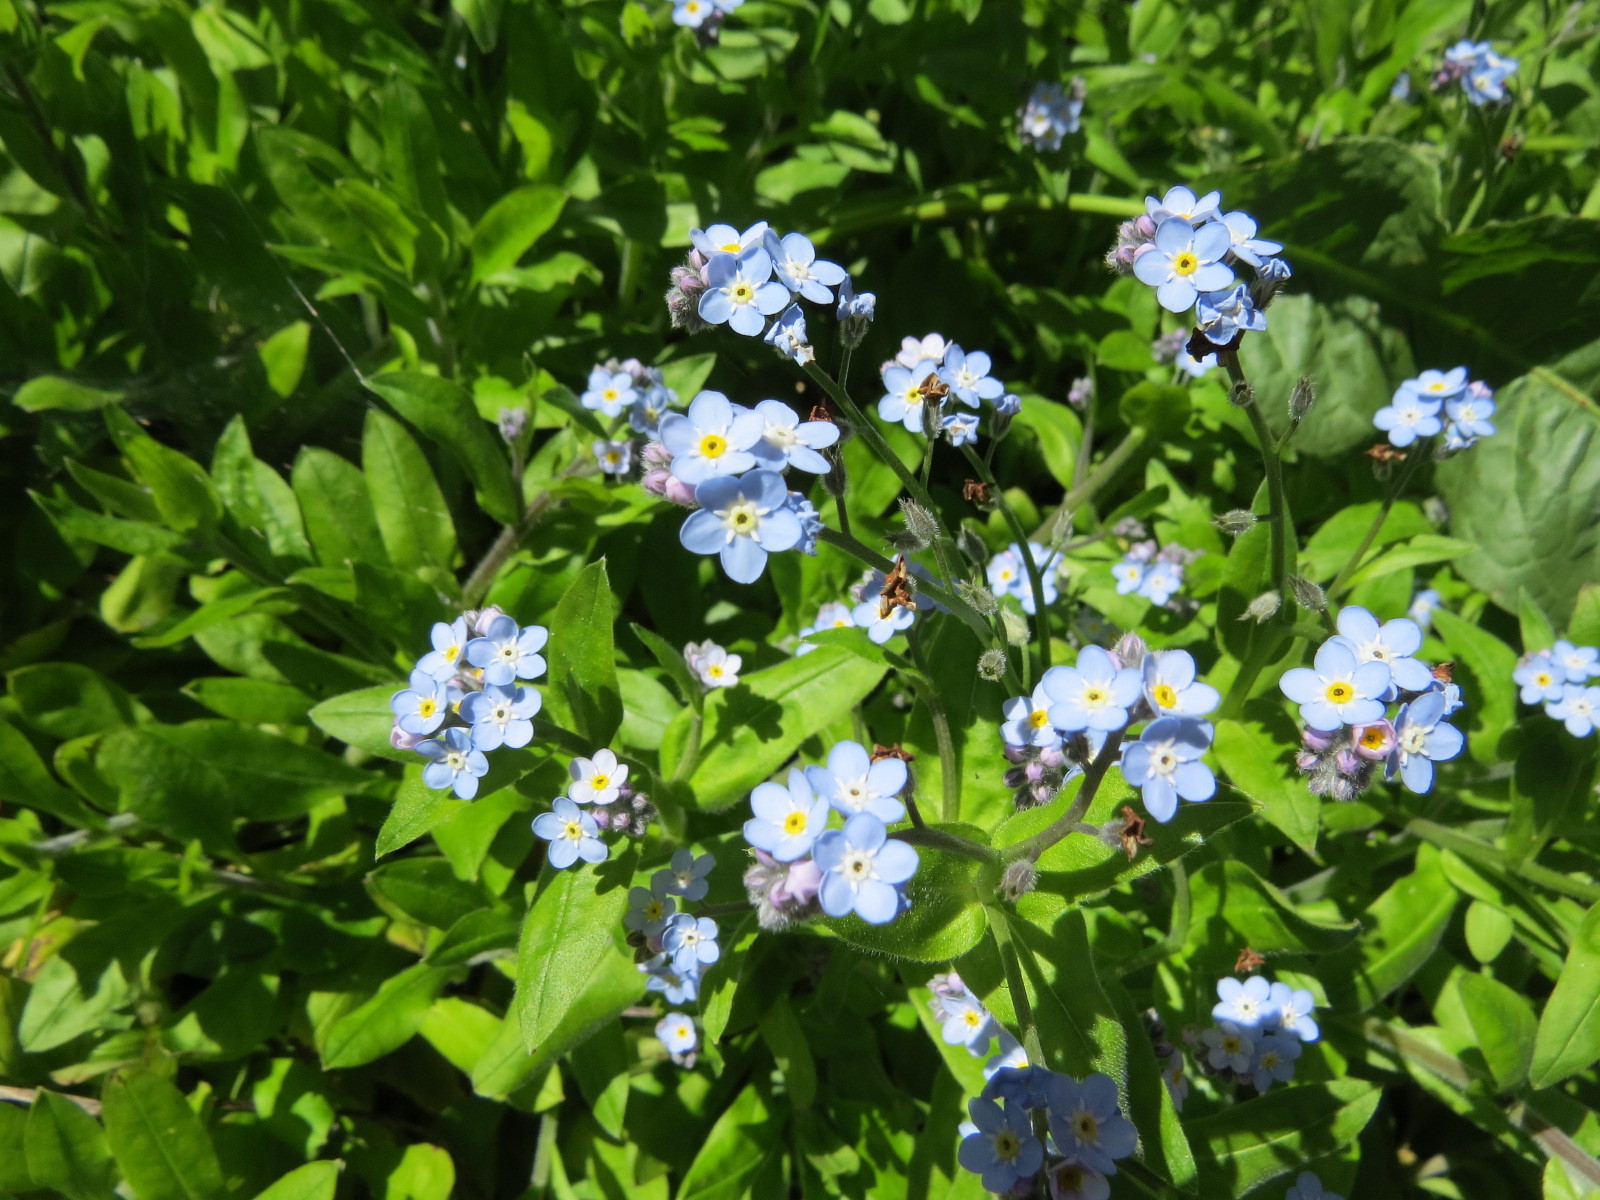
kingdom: Plantae
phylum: Tracheophyta
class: Magnoliopsida
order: Boraginales
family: Boraginaceae
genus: Myosotis
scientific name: Myosotis latifolia
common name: Broadleaf forget-me-not
